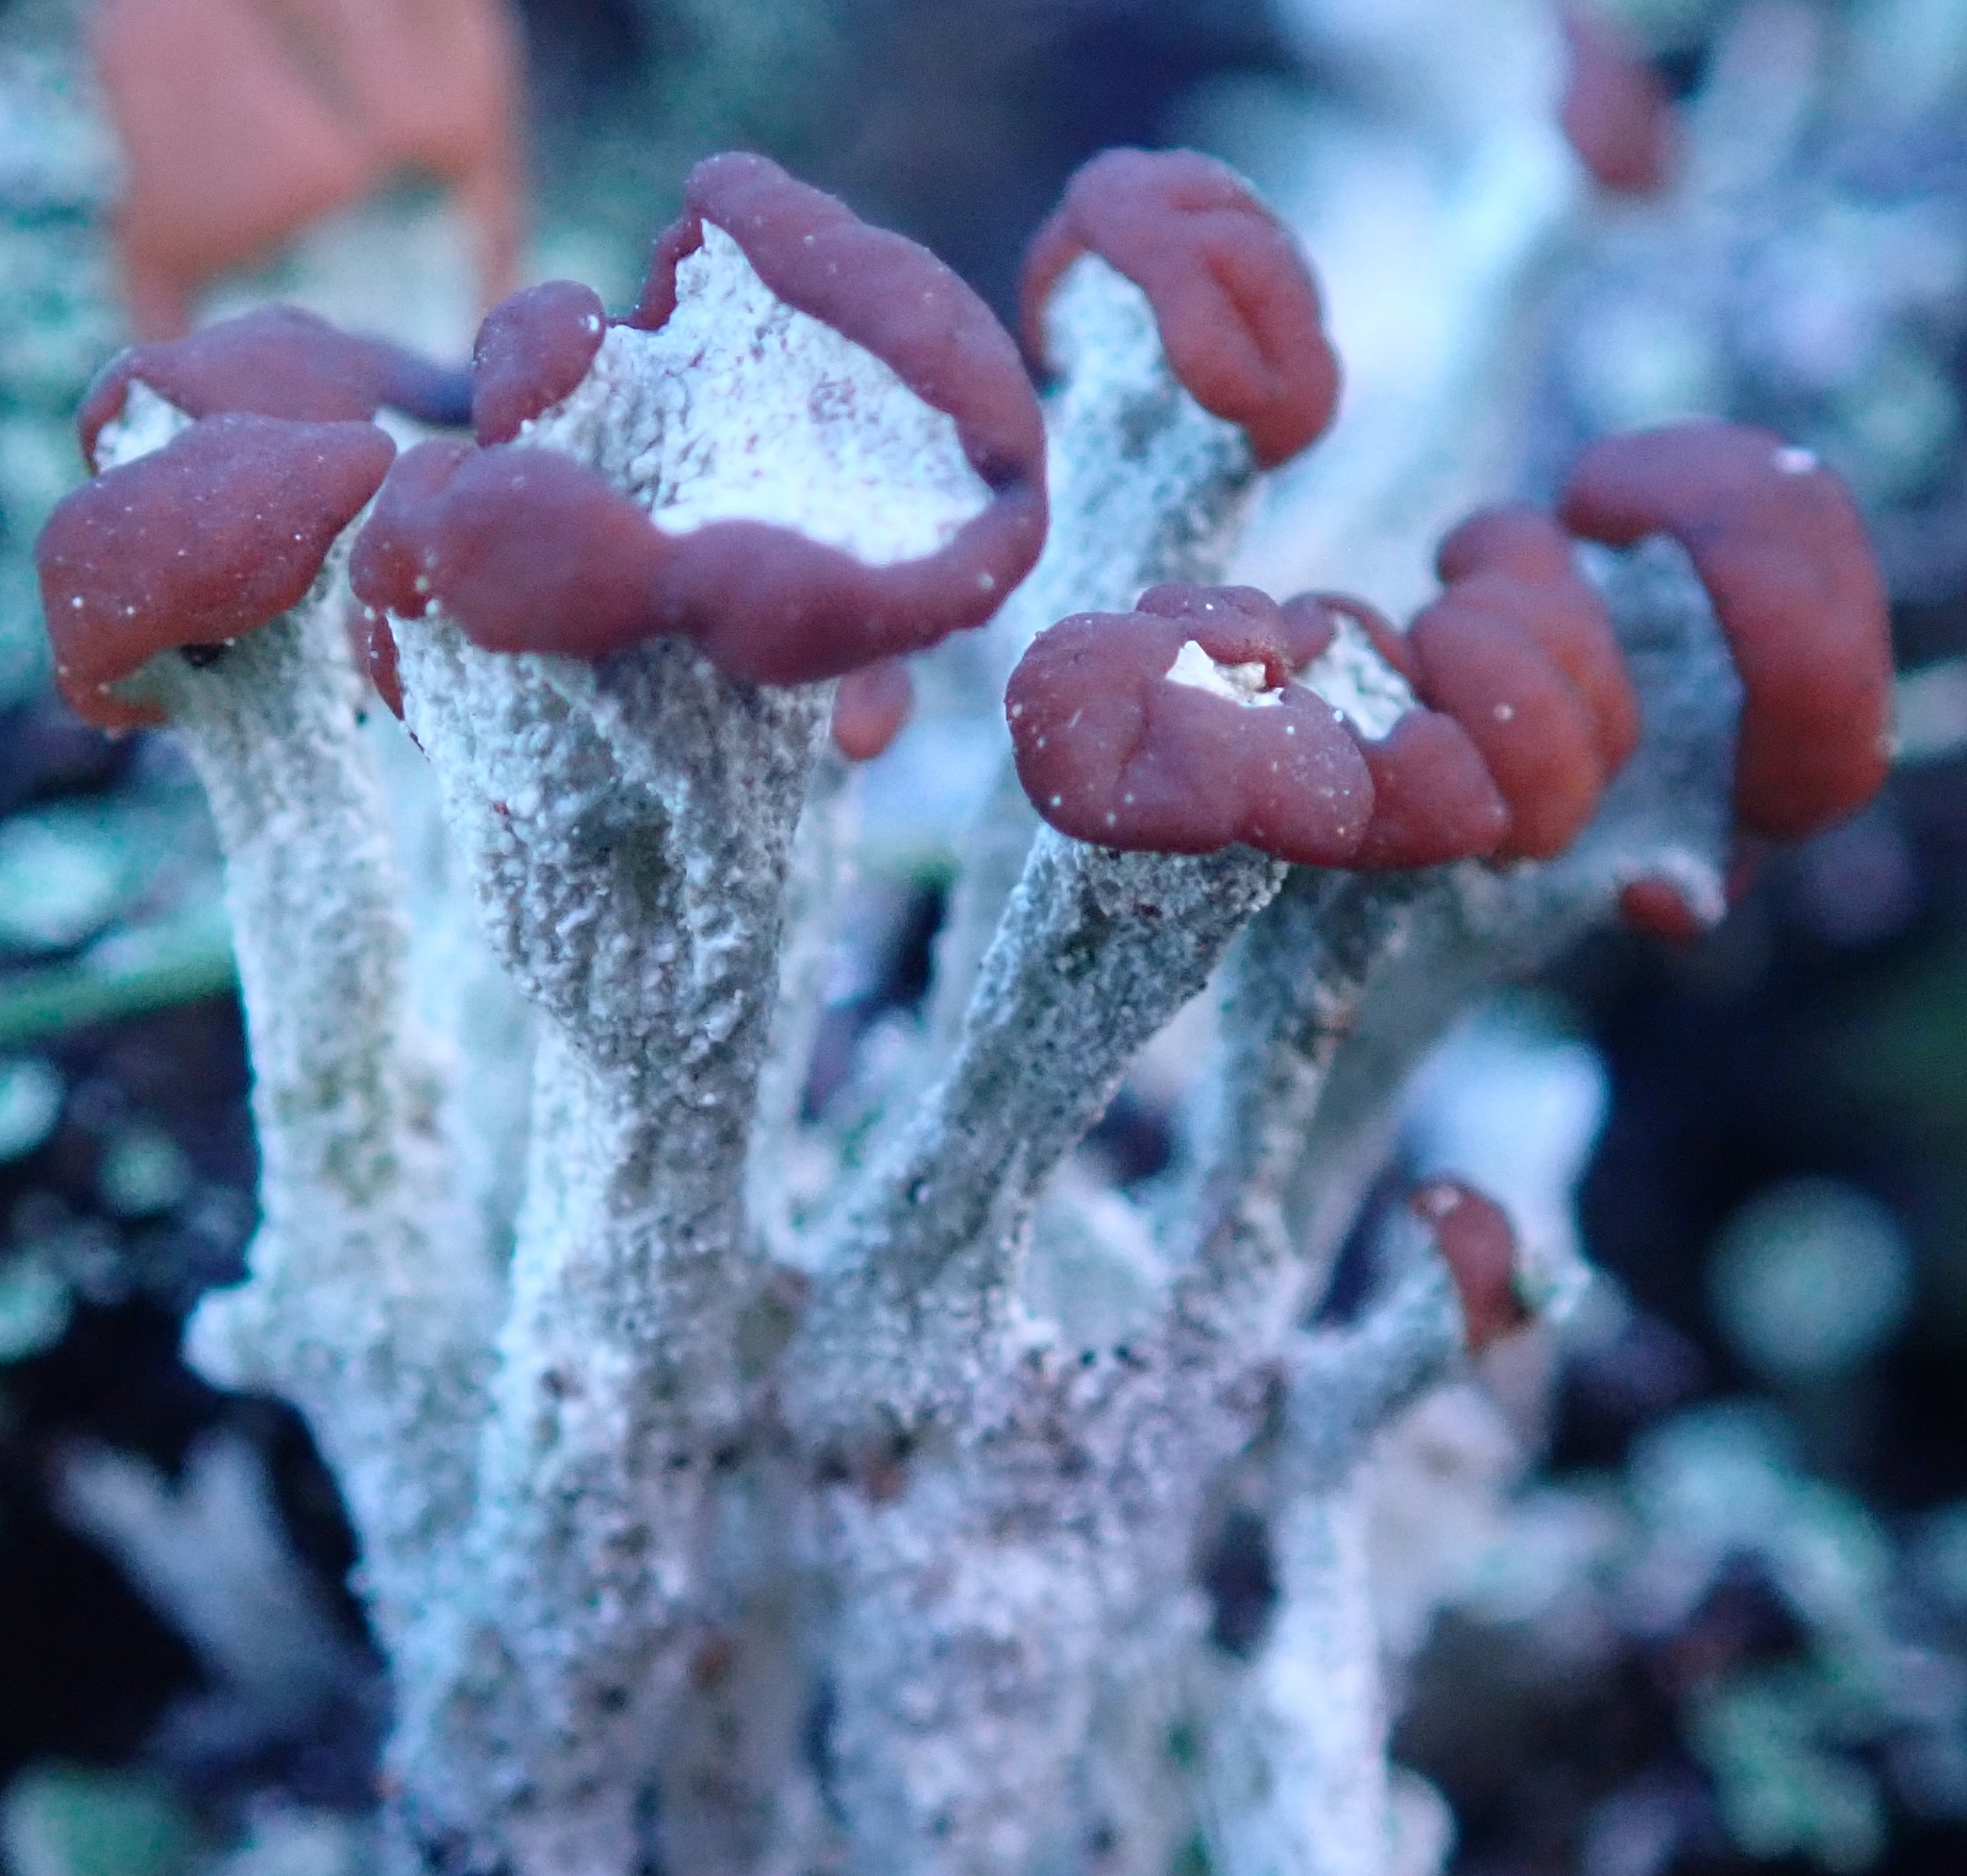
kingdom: Fungi
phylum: Ascomycota
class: Lecanoromycetes
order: Lecanorales
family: Cladoniaceae
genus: Cladonia
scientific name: Cladonia cariosa
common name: Split-peg lichen
